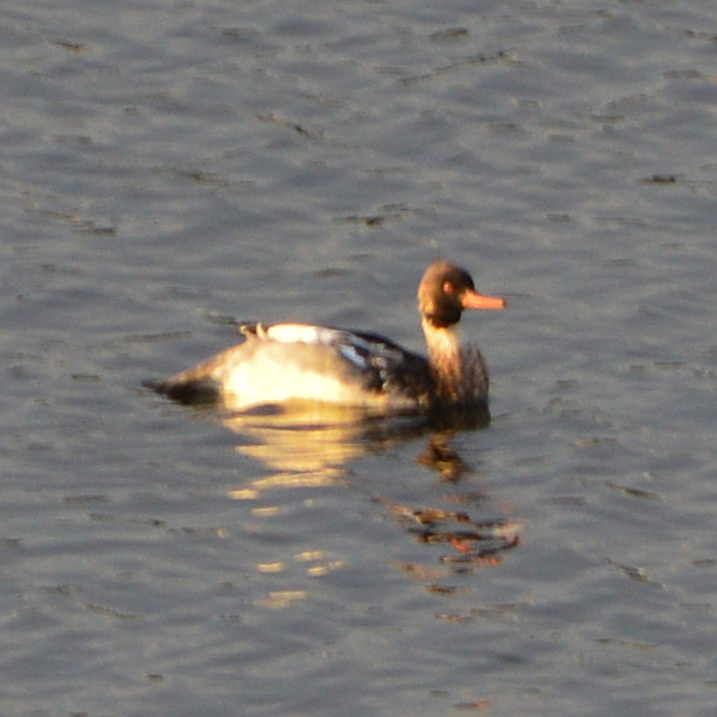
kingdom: Animalia
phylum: Chordata
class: Aves
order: Anseriformes
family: Anatidae
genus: Mergus
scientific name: Mergus serrator
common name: Red-breasted merganser
